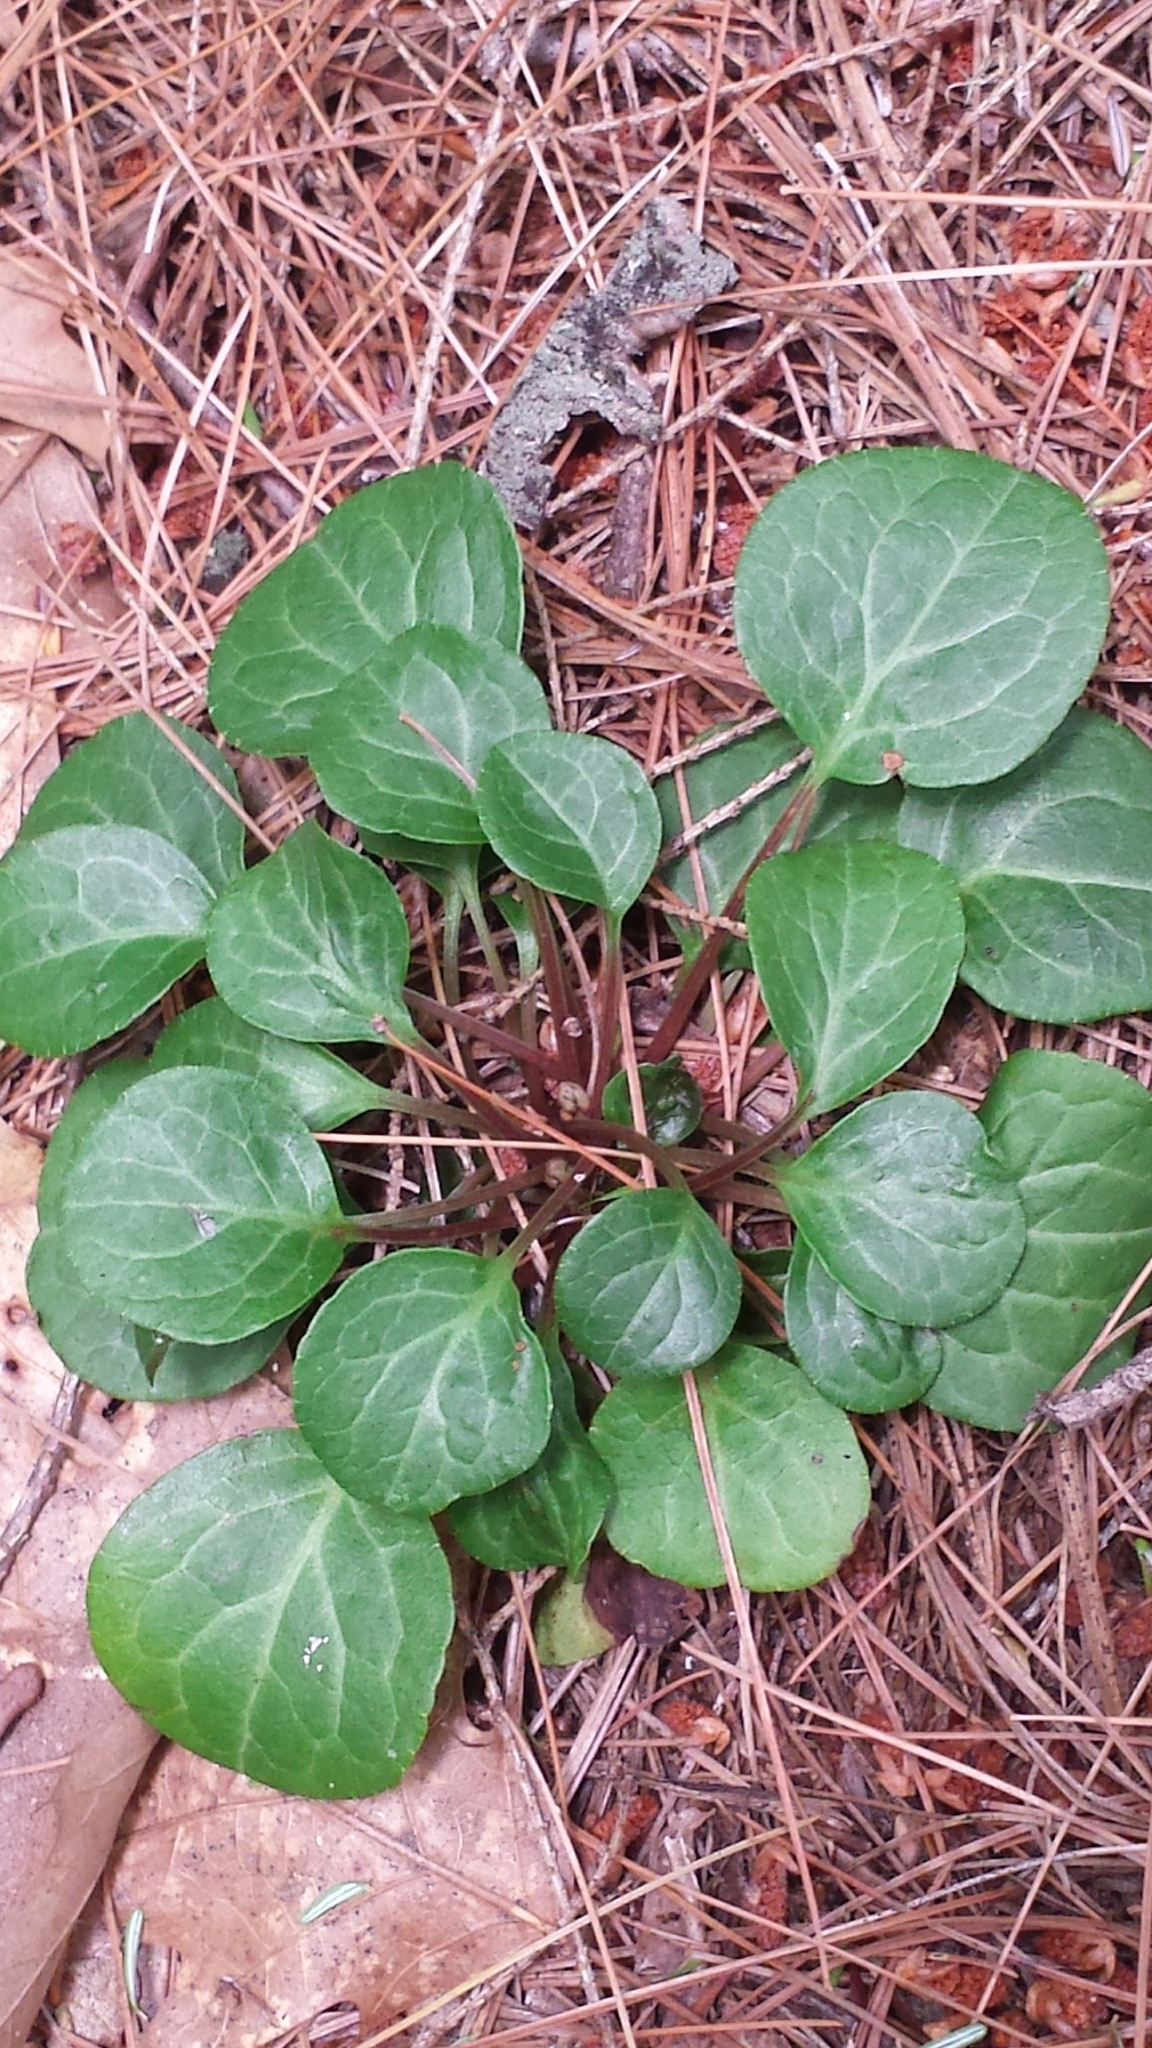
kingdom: Plantae
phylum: Tracheophyta
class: Magnoliopsida
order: Ericales
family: Ericaceae
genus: Pyrola
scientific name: Pyrola americana
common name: American wintergreen
